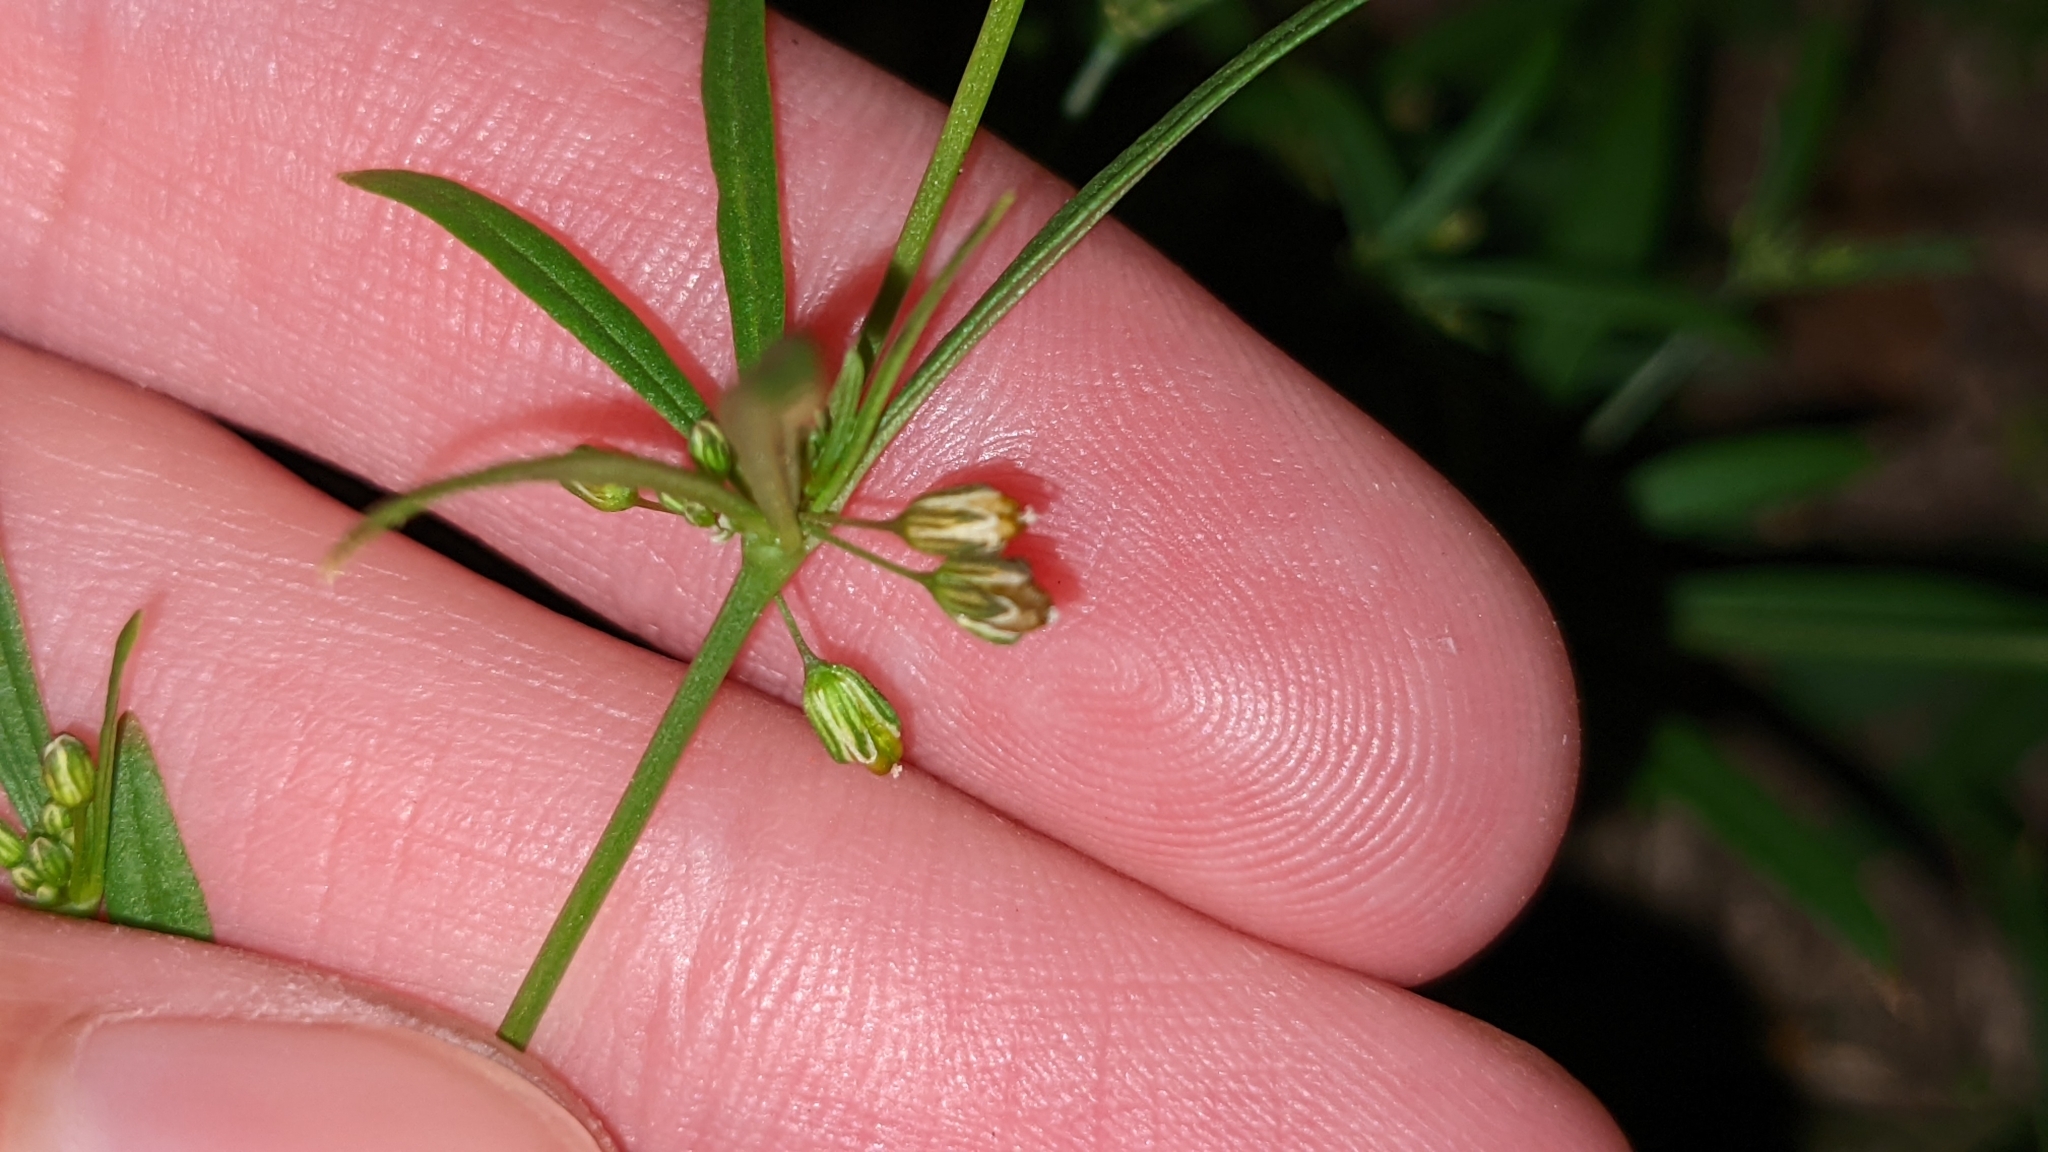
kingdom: Plantae
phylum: Tracheophyta
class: Magnoliopsida
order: Caryophyllales
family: Molluginaceae
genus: Mollugo
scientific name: Mollugo verticillata
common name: Green carpetweed
